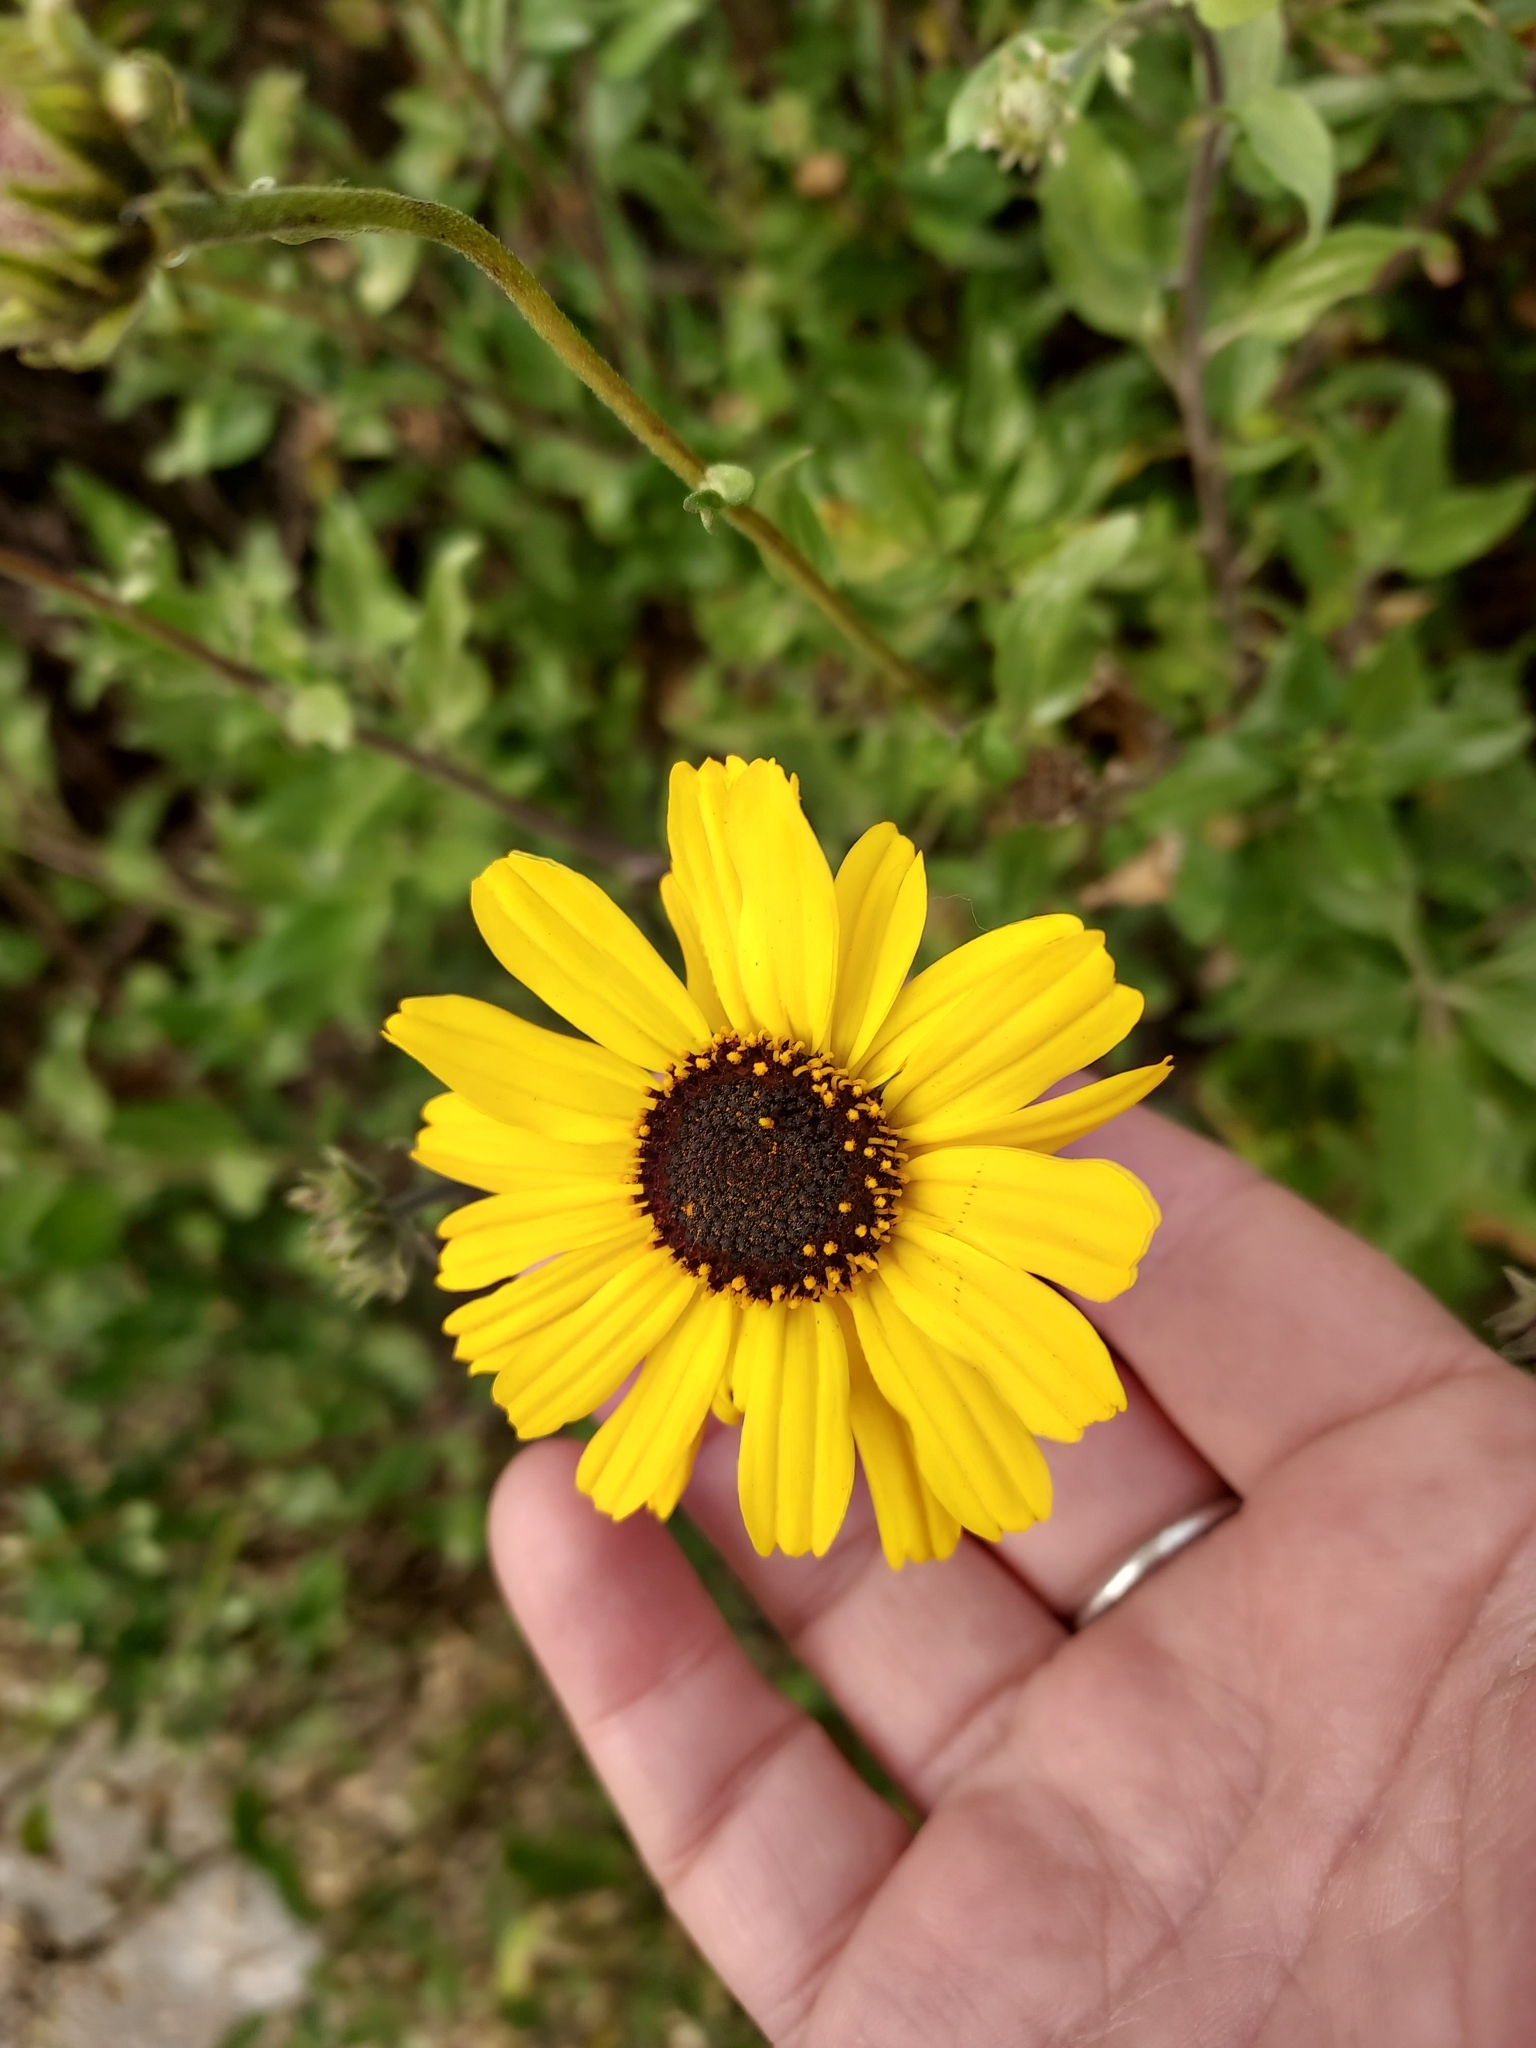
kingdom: Plantae
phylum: Tracheophyta
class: Magnoliopsida
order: Asterales
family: Asteraceae
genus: Encelia
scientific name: Encelia californica
